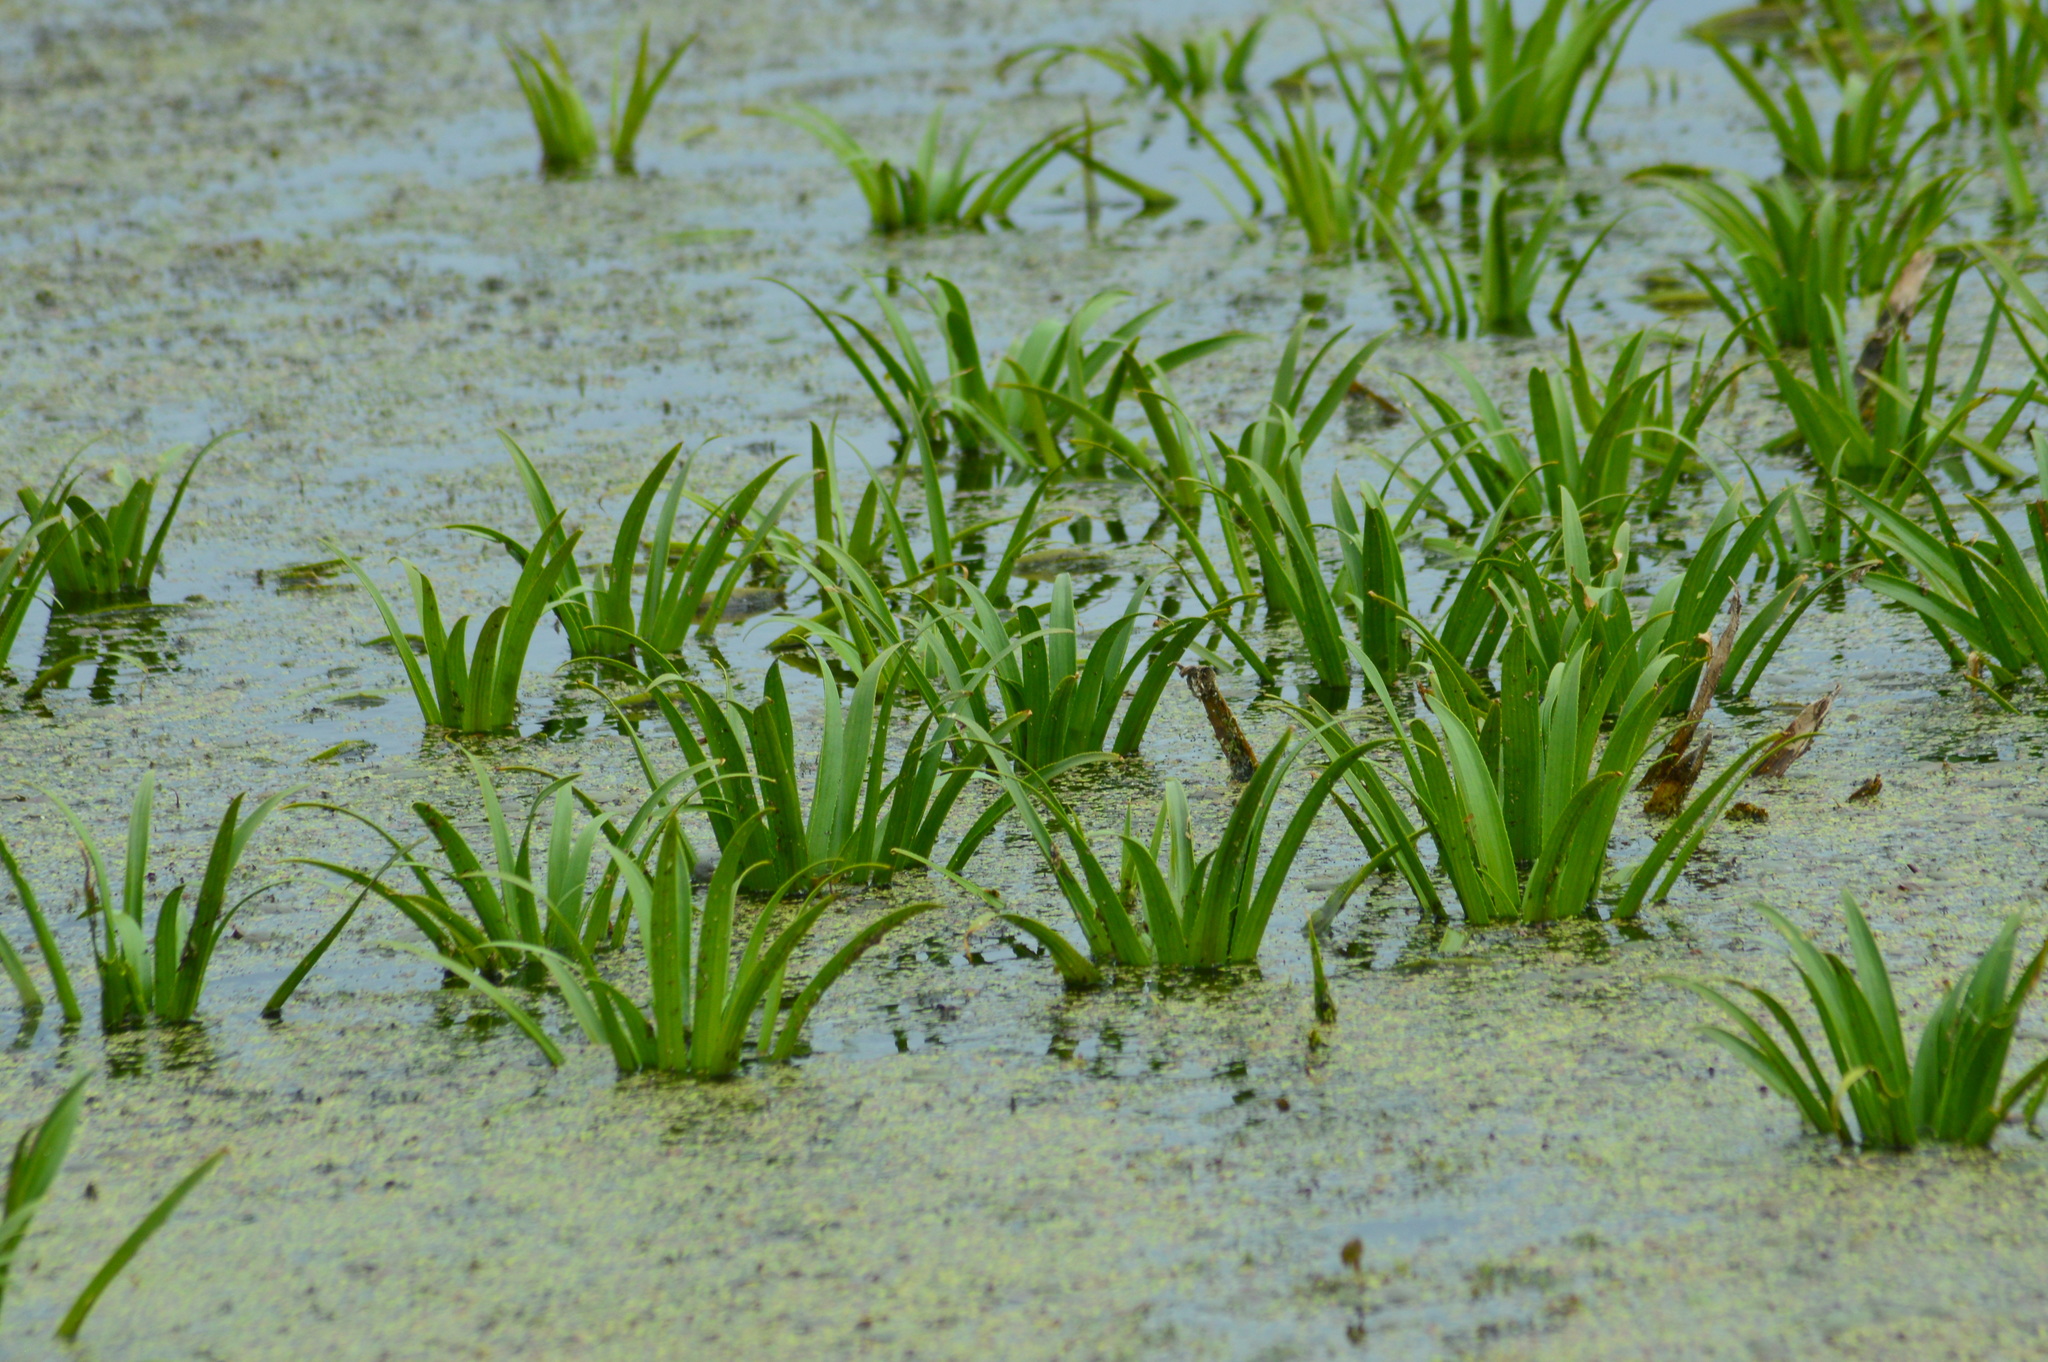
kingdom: Plantae
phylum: Tracheophyta
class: Liliopsida
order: Alismatales
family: Hydrocharitaceae
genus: Stratiotes
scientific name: Stratiotes aloides
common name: Water-soldier
